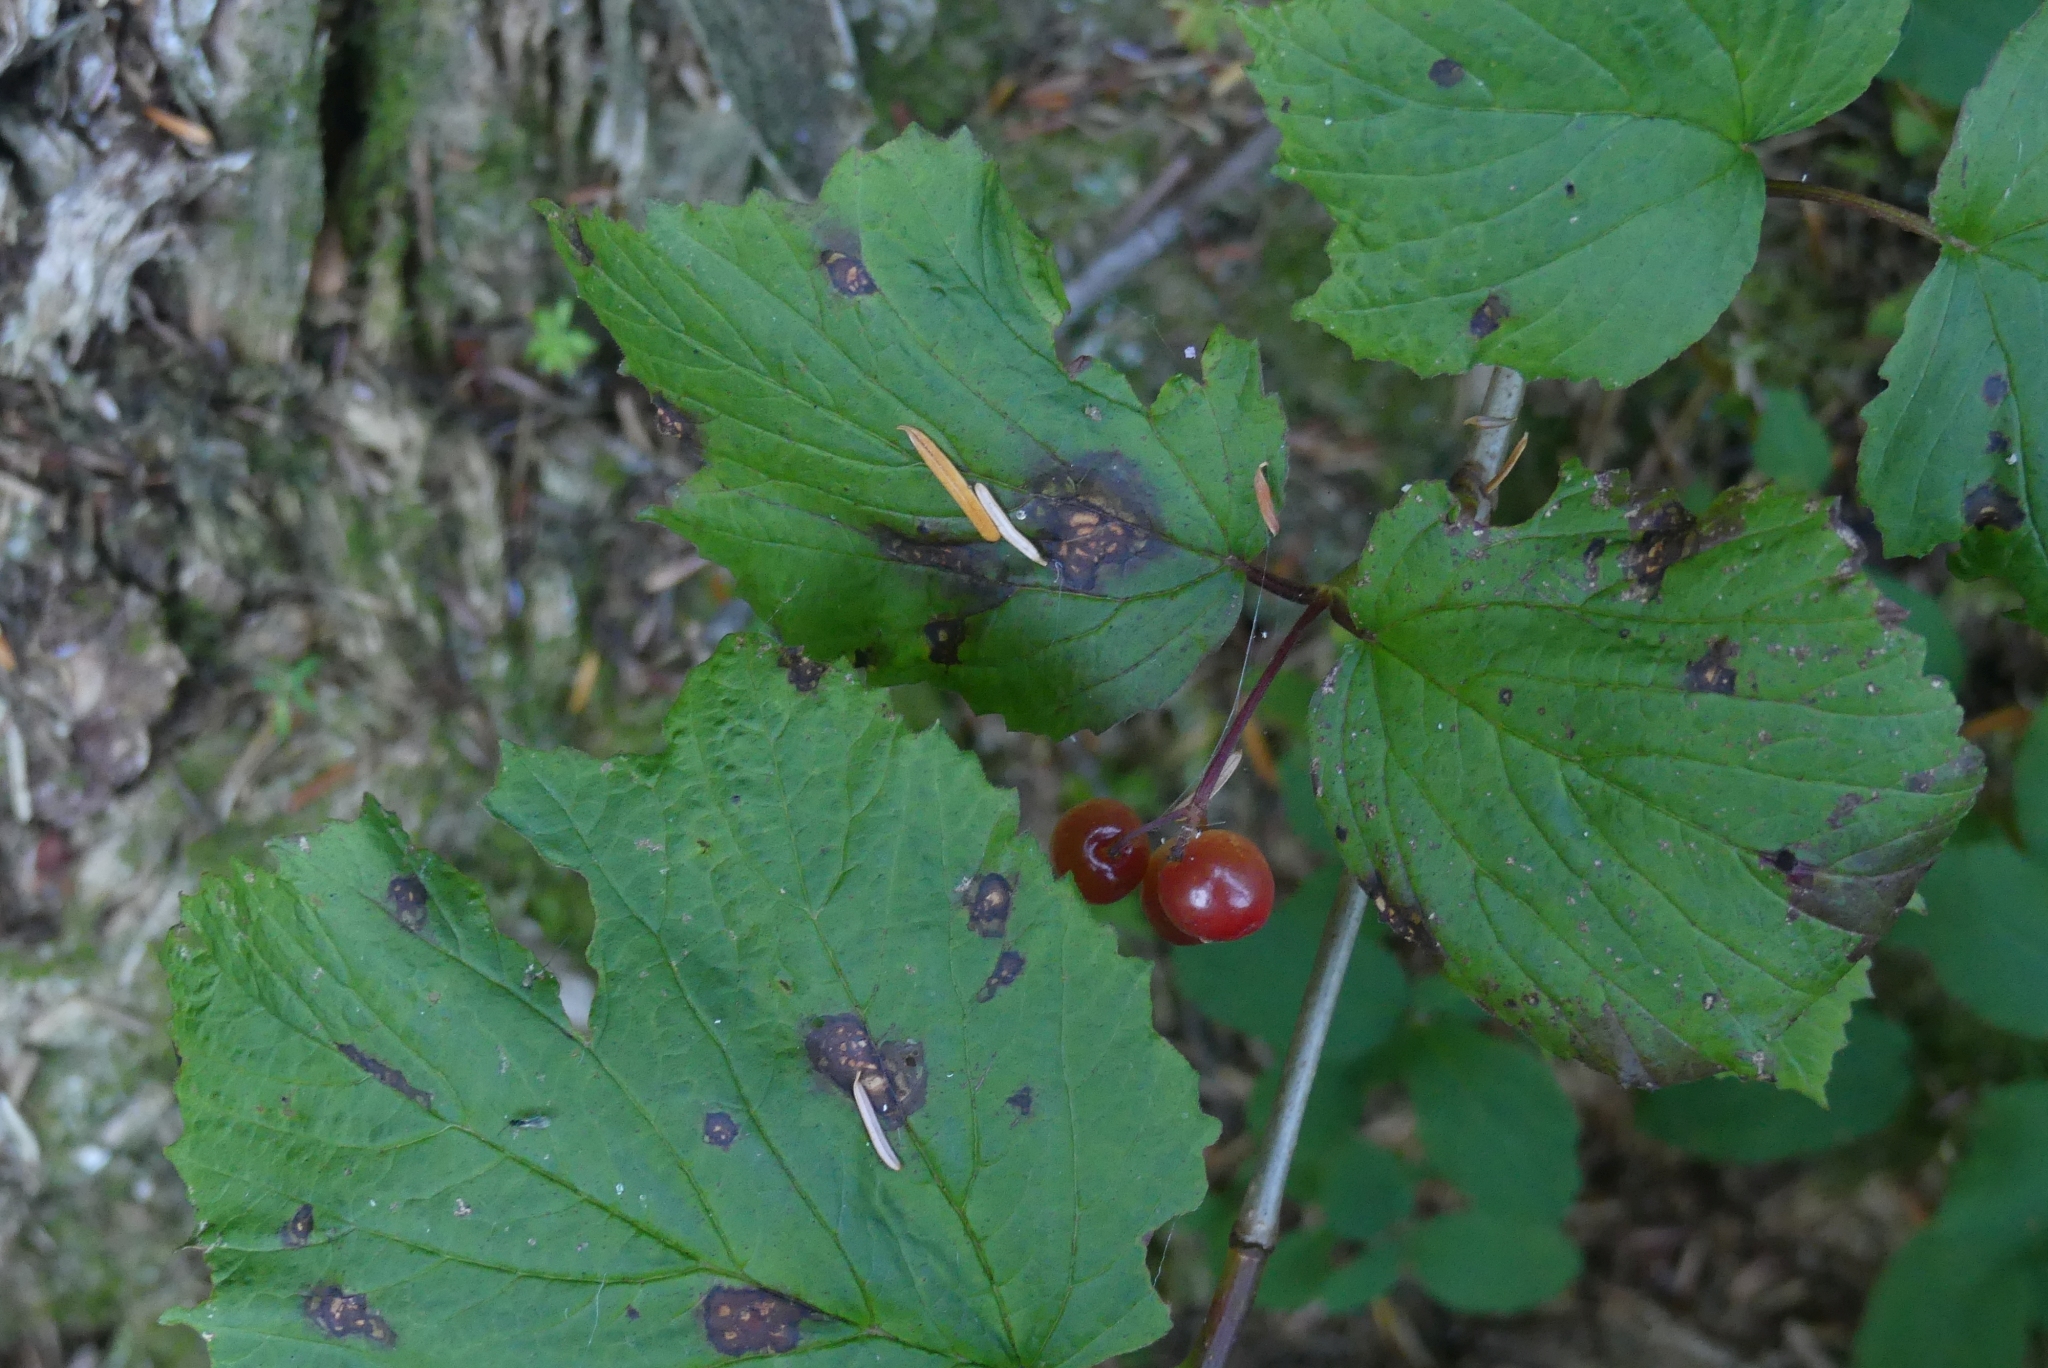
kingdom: Plantae
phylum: Tracheophyta
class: Magnoliopsida
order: Dipsacales
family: Viburnaceae
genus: Viburnum
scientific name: Viburnum edule
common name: Mooseberry
